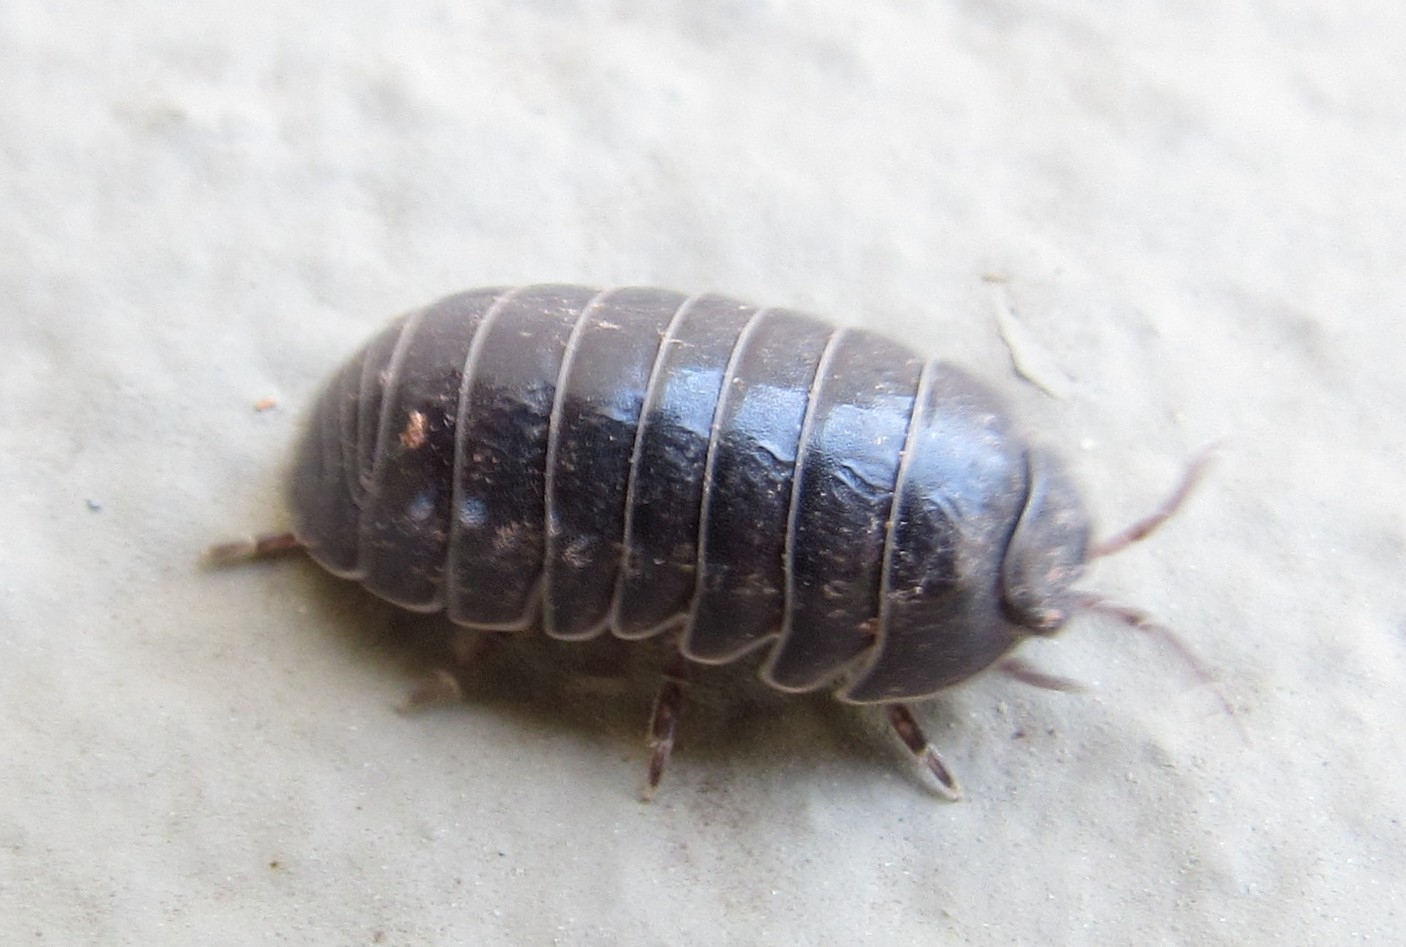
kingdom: Animalia
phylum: Arthropoda
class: Malacostraca
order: Isopoda
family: Armadillidiidae
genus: Armadillidium
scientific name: Armadillidium vulgare
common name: Common pill woodlouse
